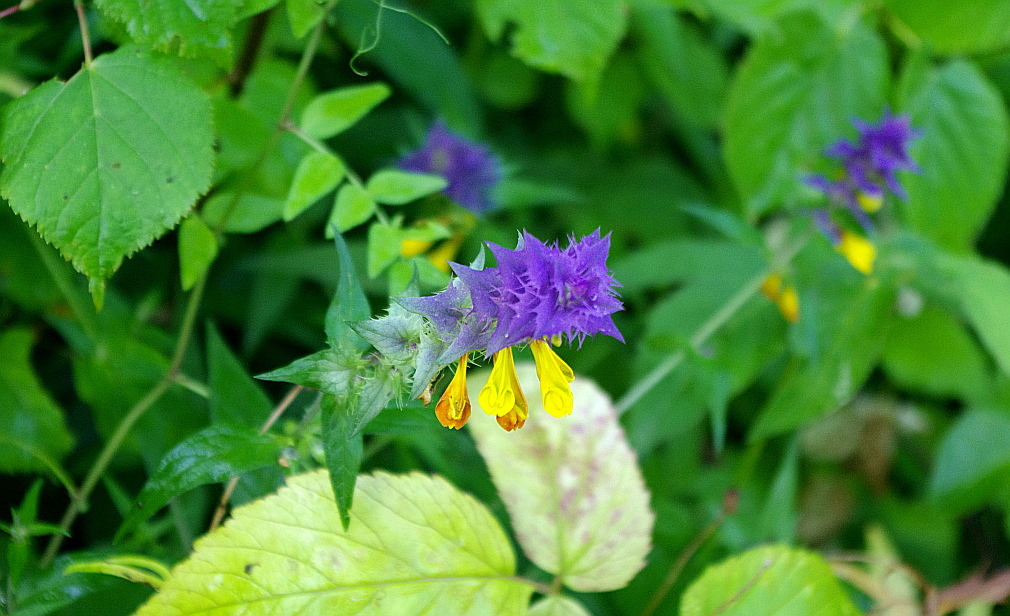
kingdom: Plantae
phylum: Tracheophyta
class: Magnoliopsida
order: Lamiales
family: Orobanchaceae
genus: Melampyrum
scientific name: Melampyrum nemorosum
